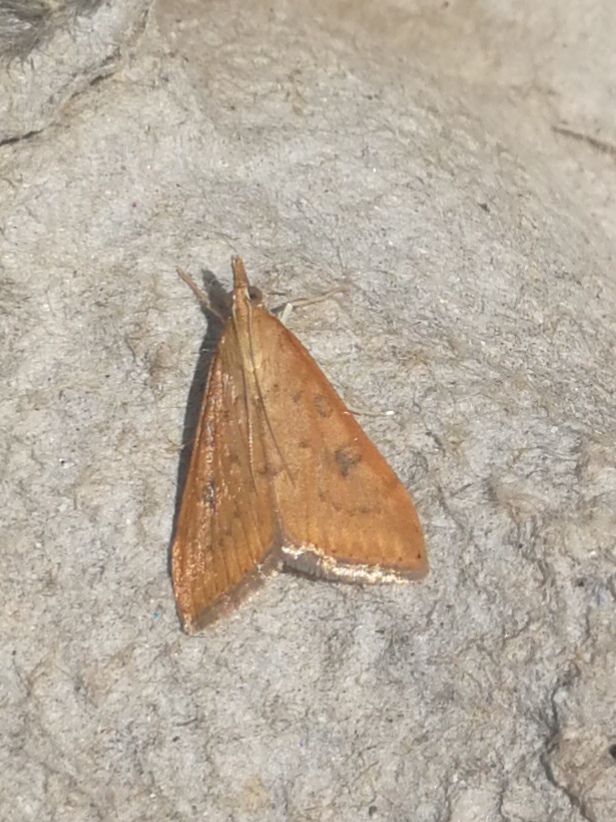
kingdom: Animalia
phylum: Arthropoda
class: Insecta
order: Lepidoptera
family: Crambidae
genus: Udea
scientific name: Udea ferrugalis
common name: Rusty dot
